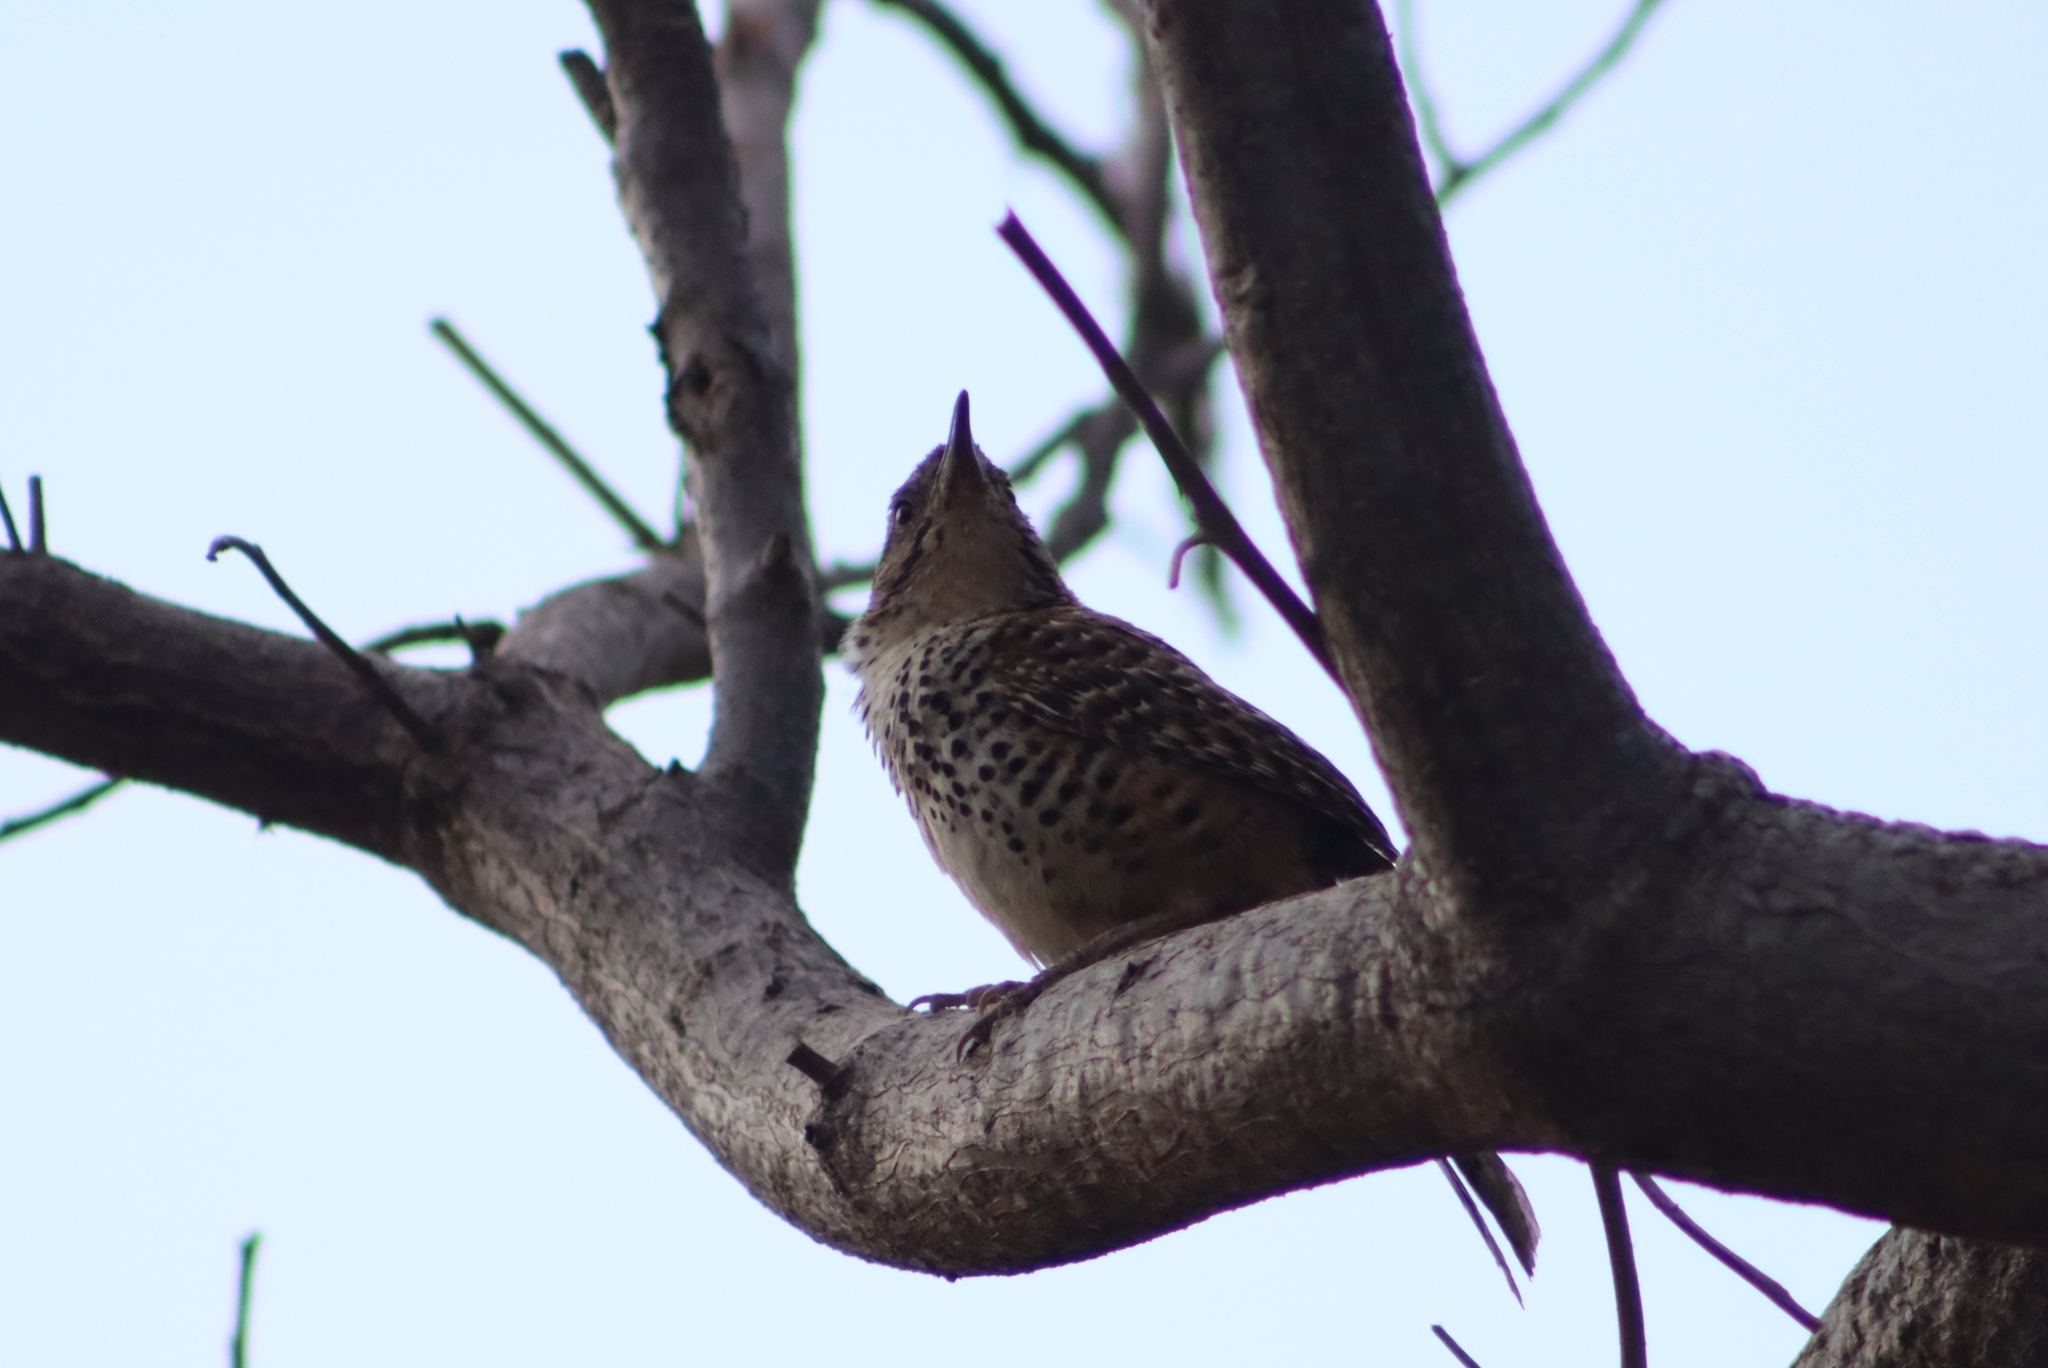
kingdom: Animalia
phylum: Chordata
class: Aves
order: Passeriformes
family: Troglodytidae
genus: Campylorhynchus
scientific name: Campylorhynchus gularis
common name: Spotted wren
